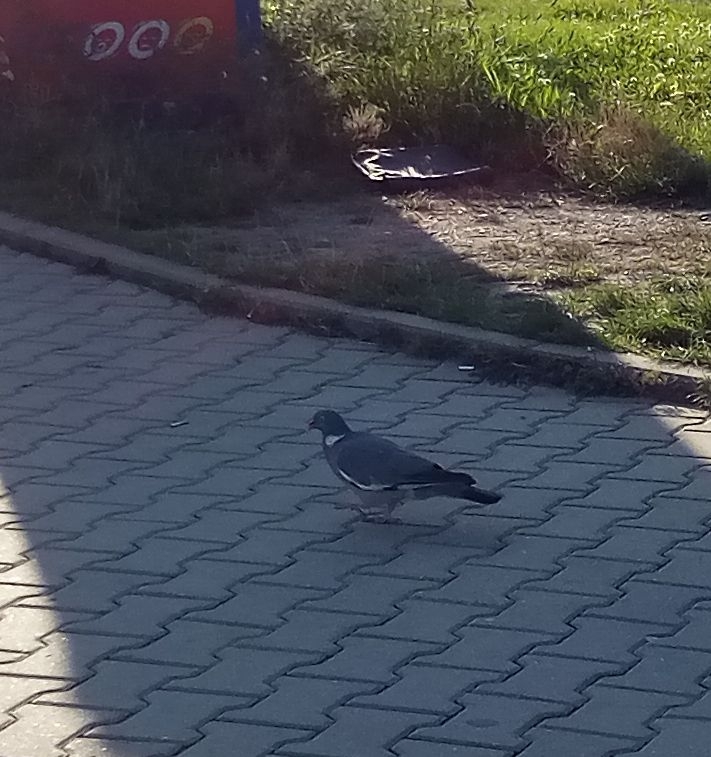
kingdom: Animalia
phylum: Chordata
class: Aves
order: Columbiformes
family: Columbidae
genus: Columba
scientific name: Columba palumbus
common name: Common wood pigeon
